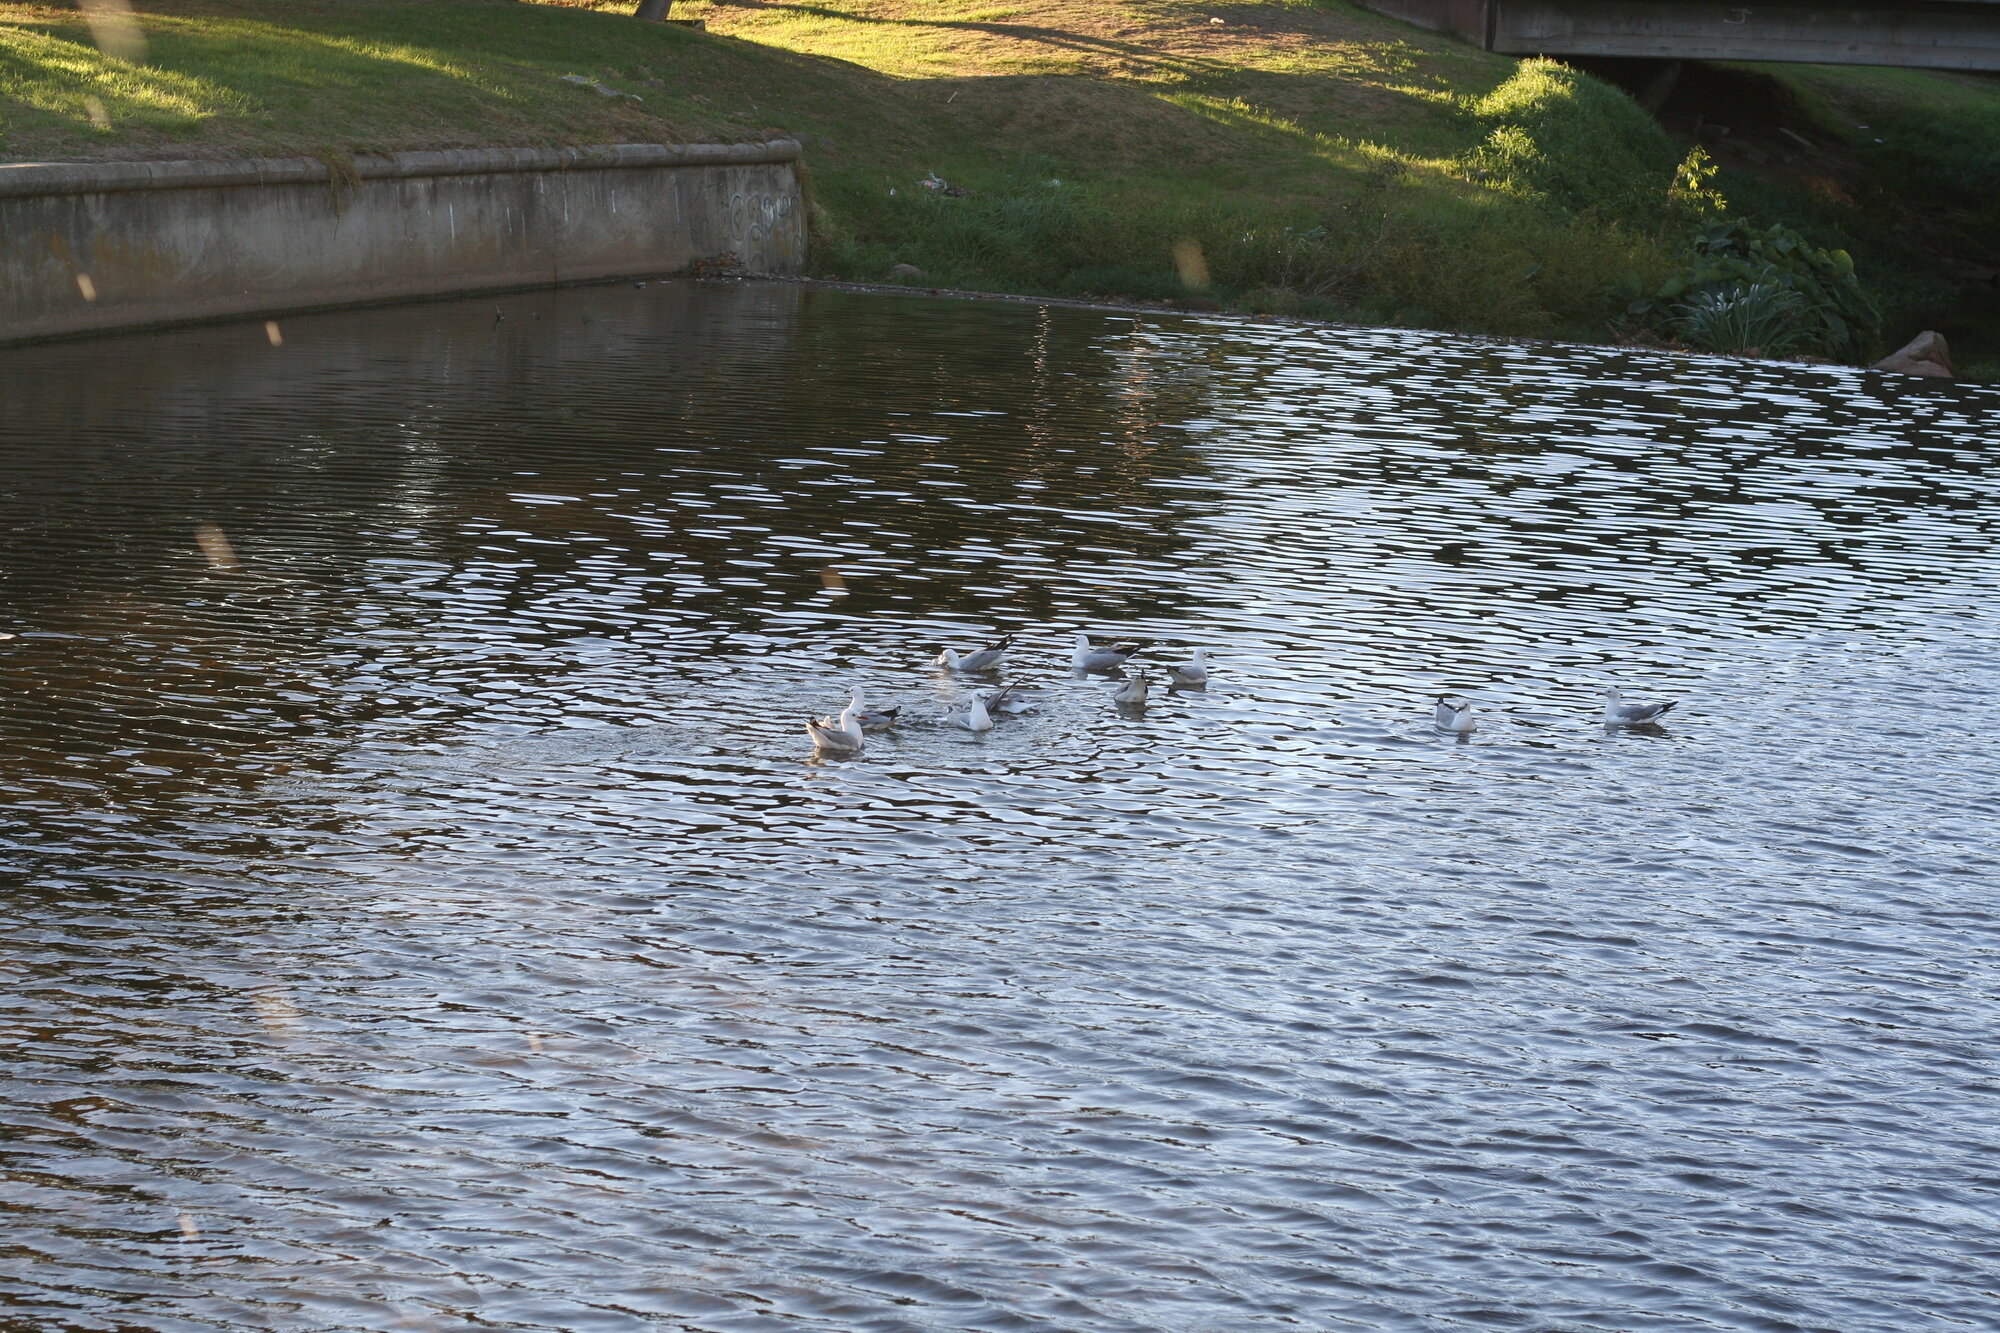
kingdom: Animalia
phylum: Chordata
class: Aves
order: Charadriiformes
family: Laridae
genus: Chroicocephalus
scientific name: Chroicocephalus hartlaubii
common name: Hartlaub's gull
